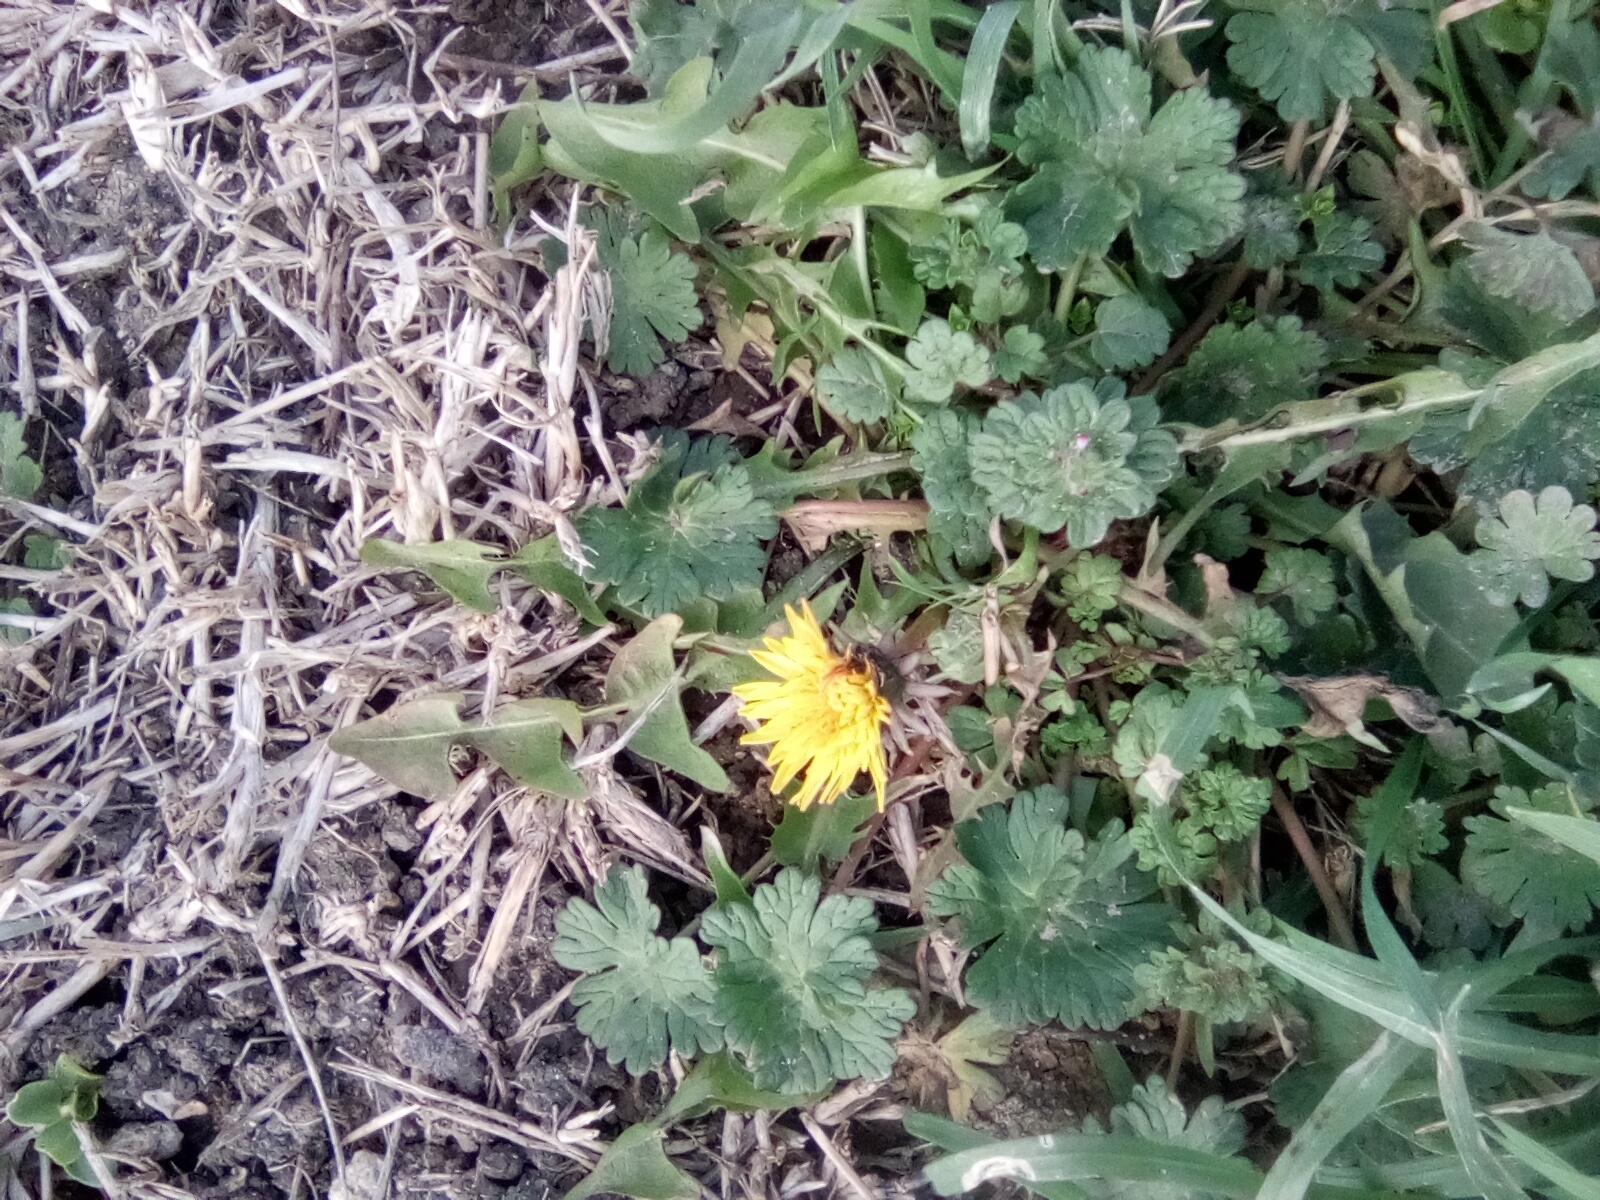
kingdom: Plantae
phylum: Tracheophyta
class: Magnoliopsida
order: Asterales
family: Asteraceae
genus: Taraxacum
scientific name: Taraxacum officinale
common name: Common dandelion
